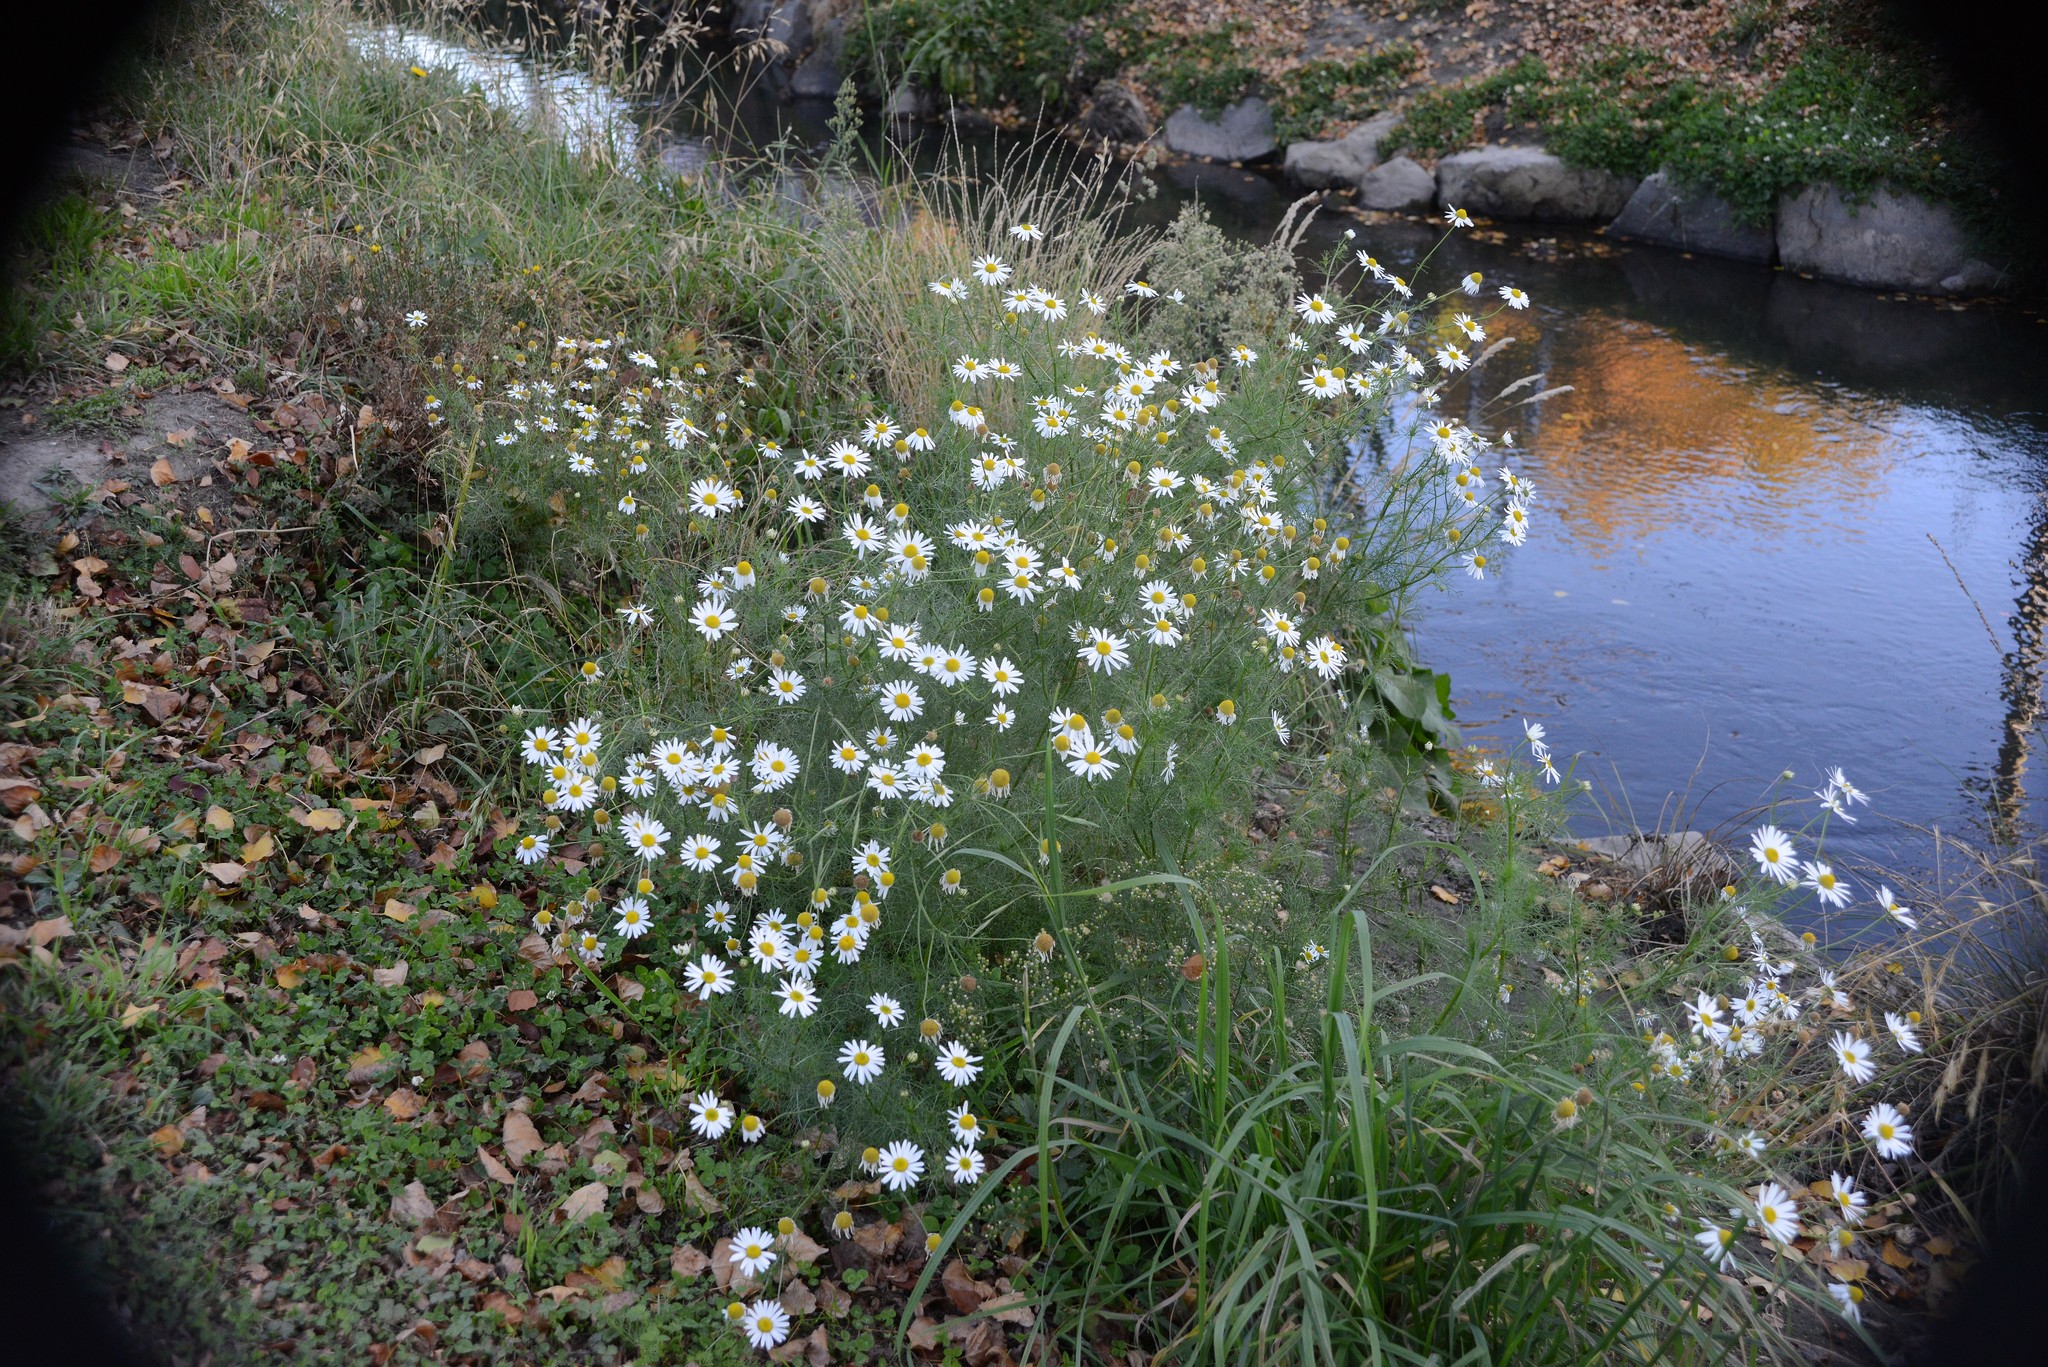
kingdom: Plantae
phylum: Tracheophyta
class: Magnoliopsida
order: Asterales
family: Asteraceae
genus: Tripleurospermum
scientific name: Tripleurospermum inodorum
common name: Scentless mayweed
